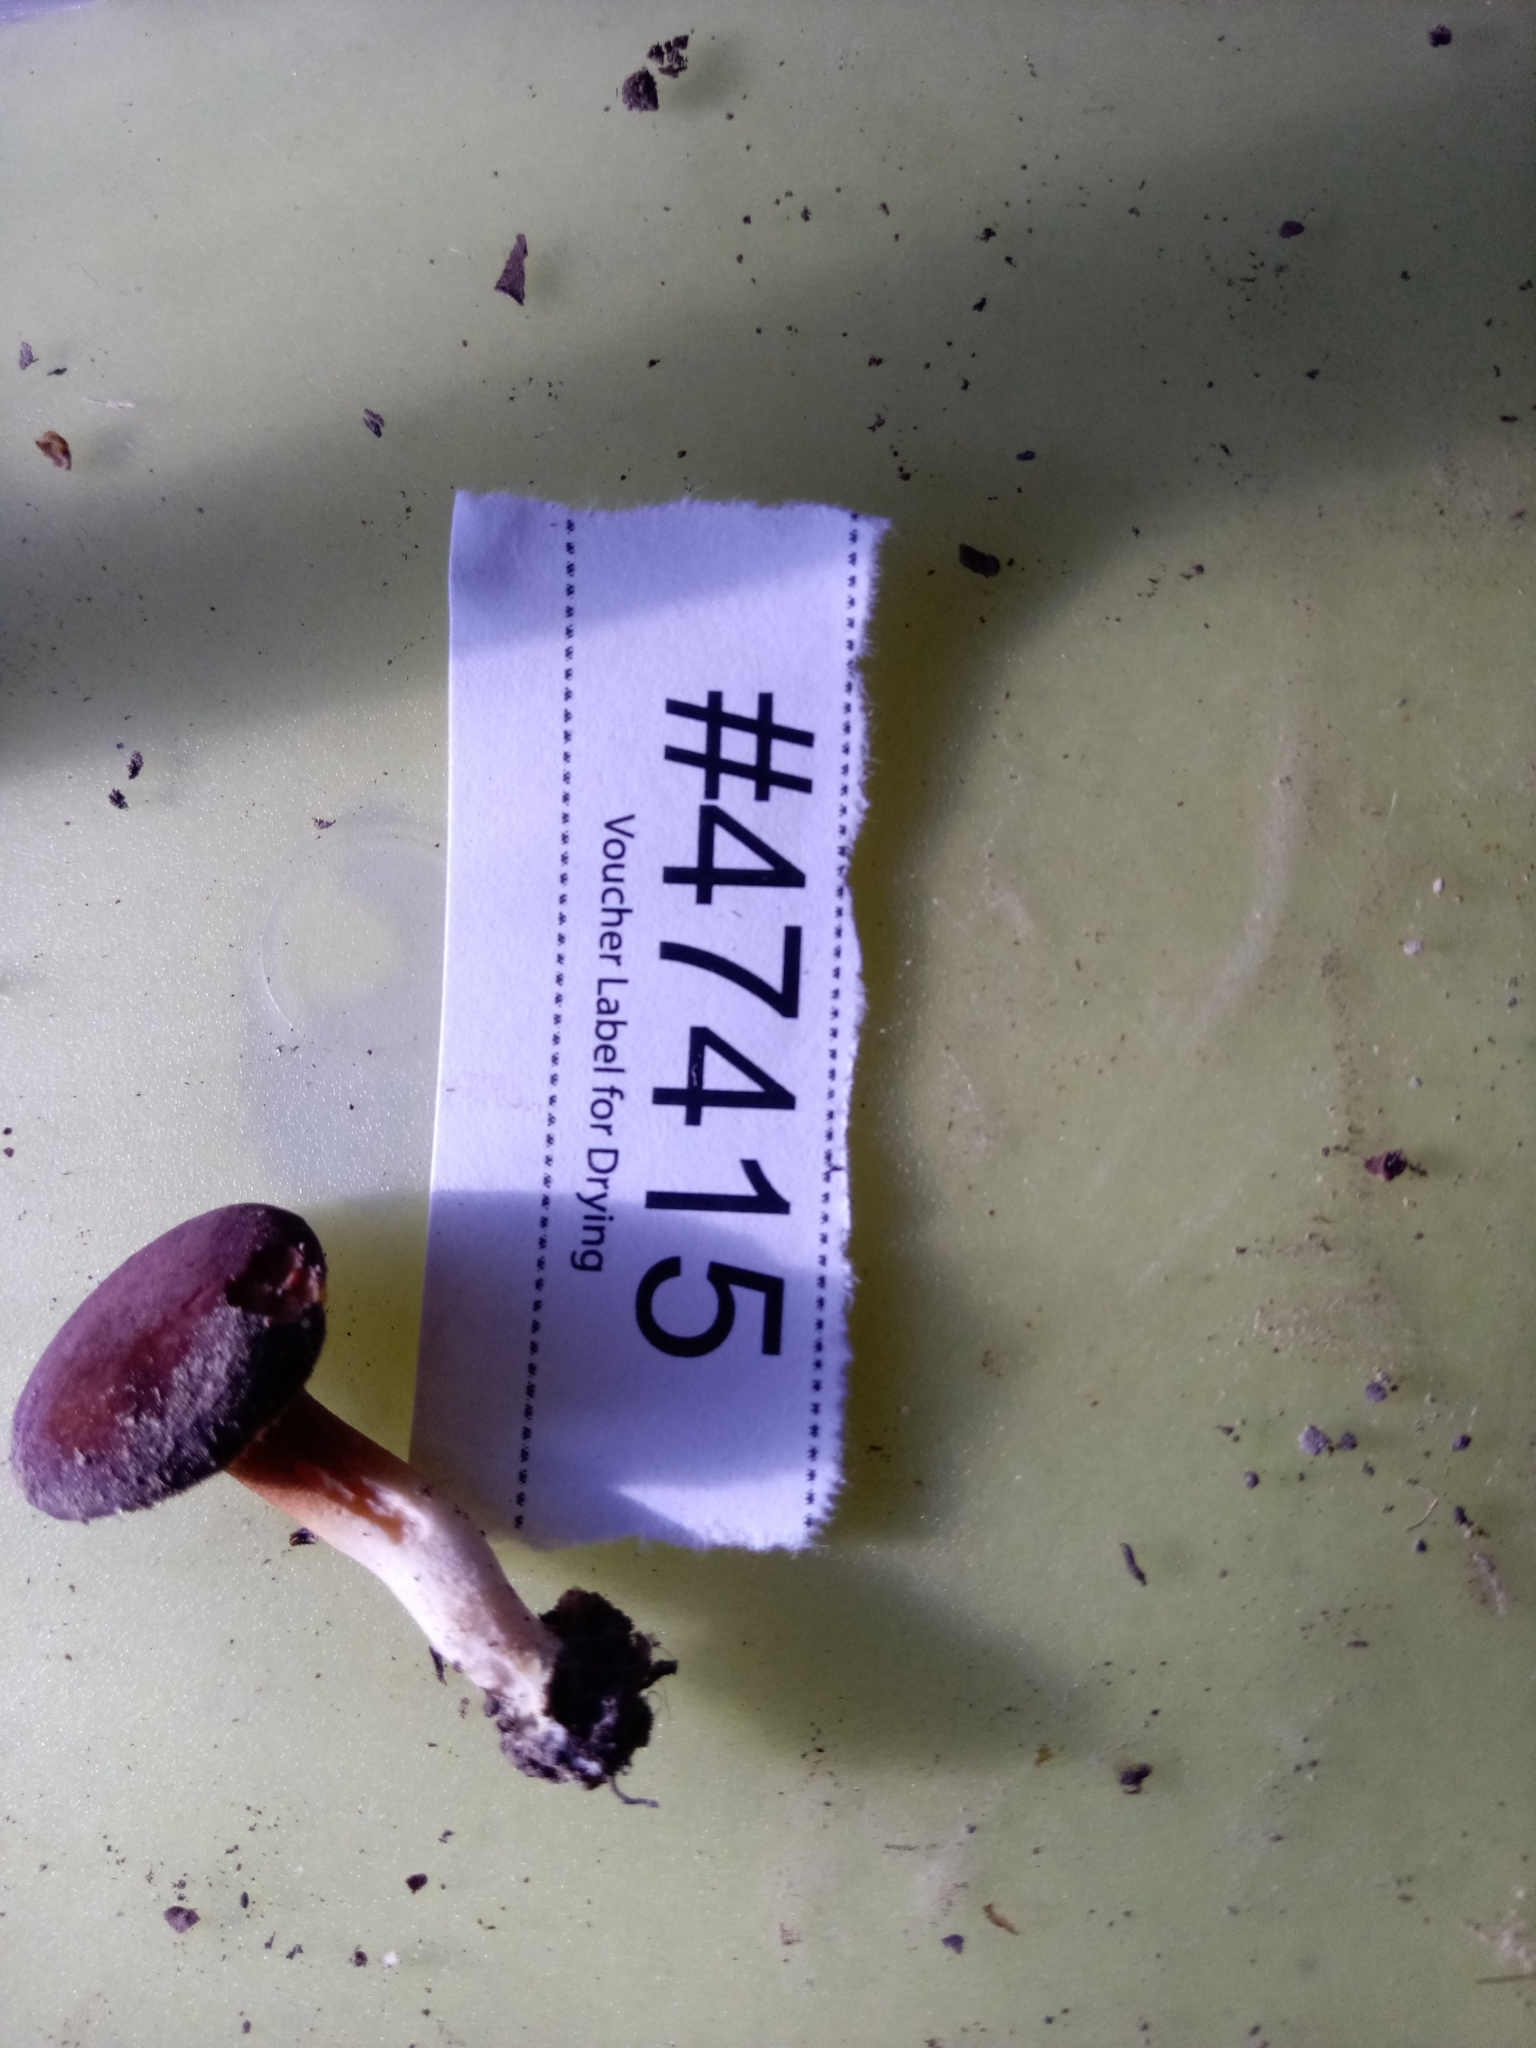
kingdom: Fungi
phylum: Basidiomycota
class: Agaricomycetes
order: Boletales
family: Boletaceae
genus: Phylloporus
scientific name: Phylloporus leucomycelinus
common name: Gilled bolete
